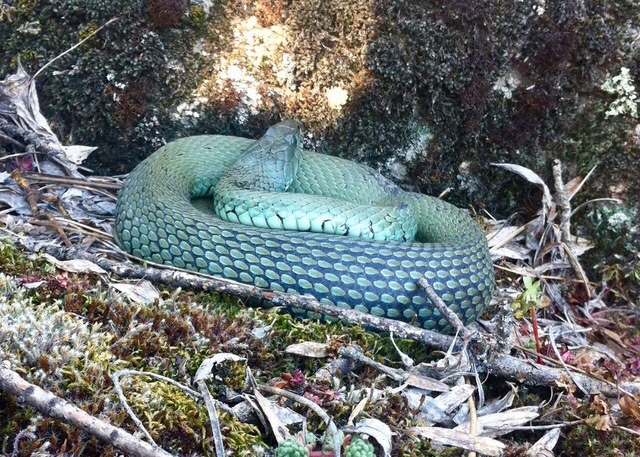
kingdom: Animalia
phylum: Chordata
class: Squamata
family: Colubridae
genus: Natrix
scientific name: Natrix astreptophora
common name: Red-eyed grass snake
